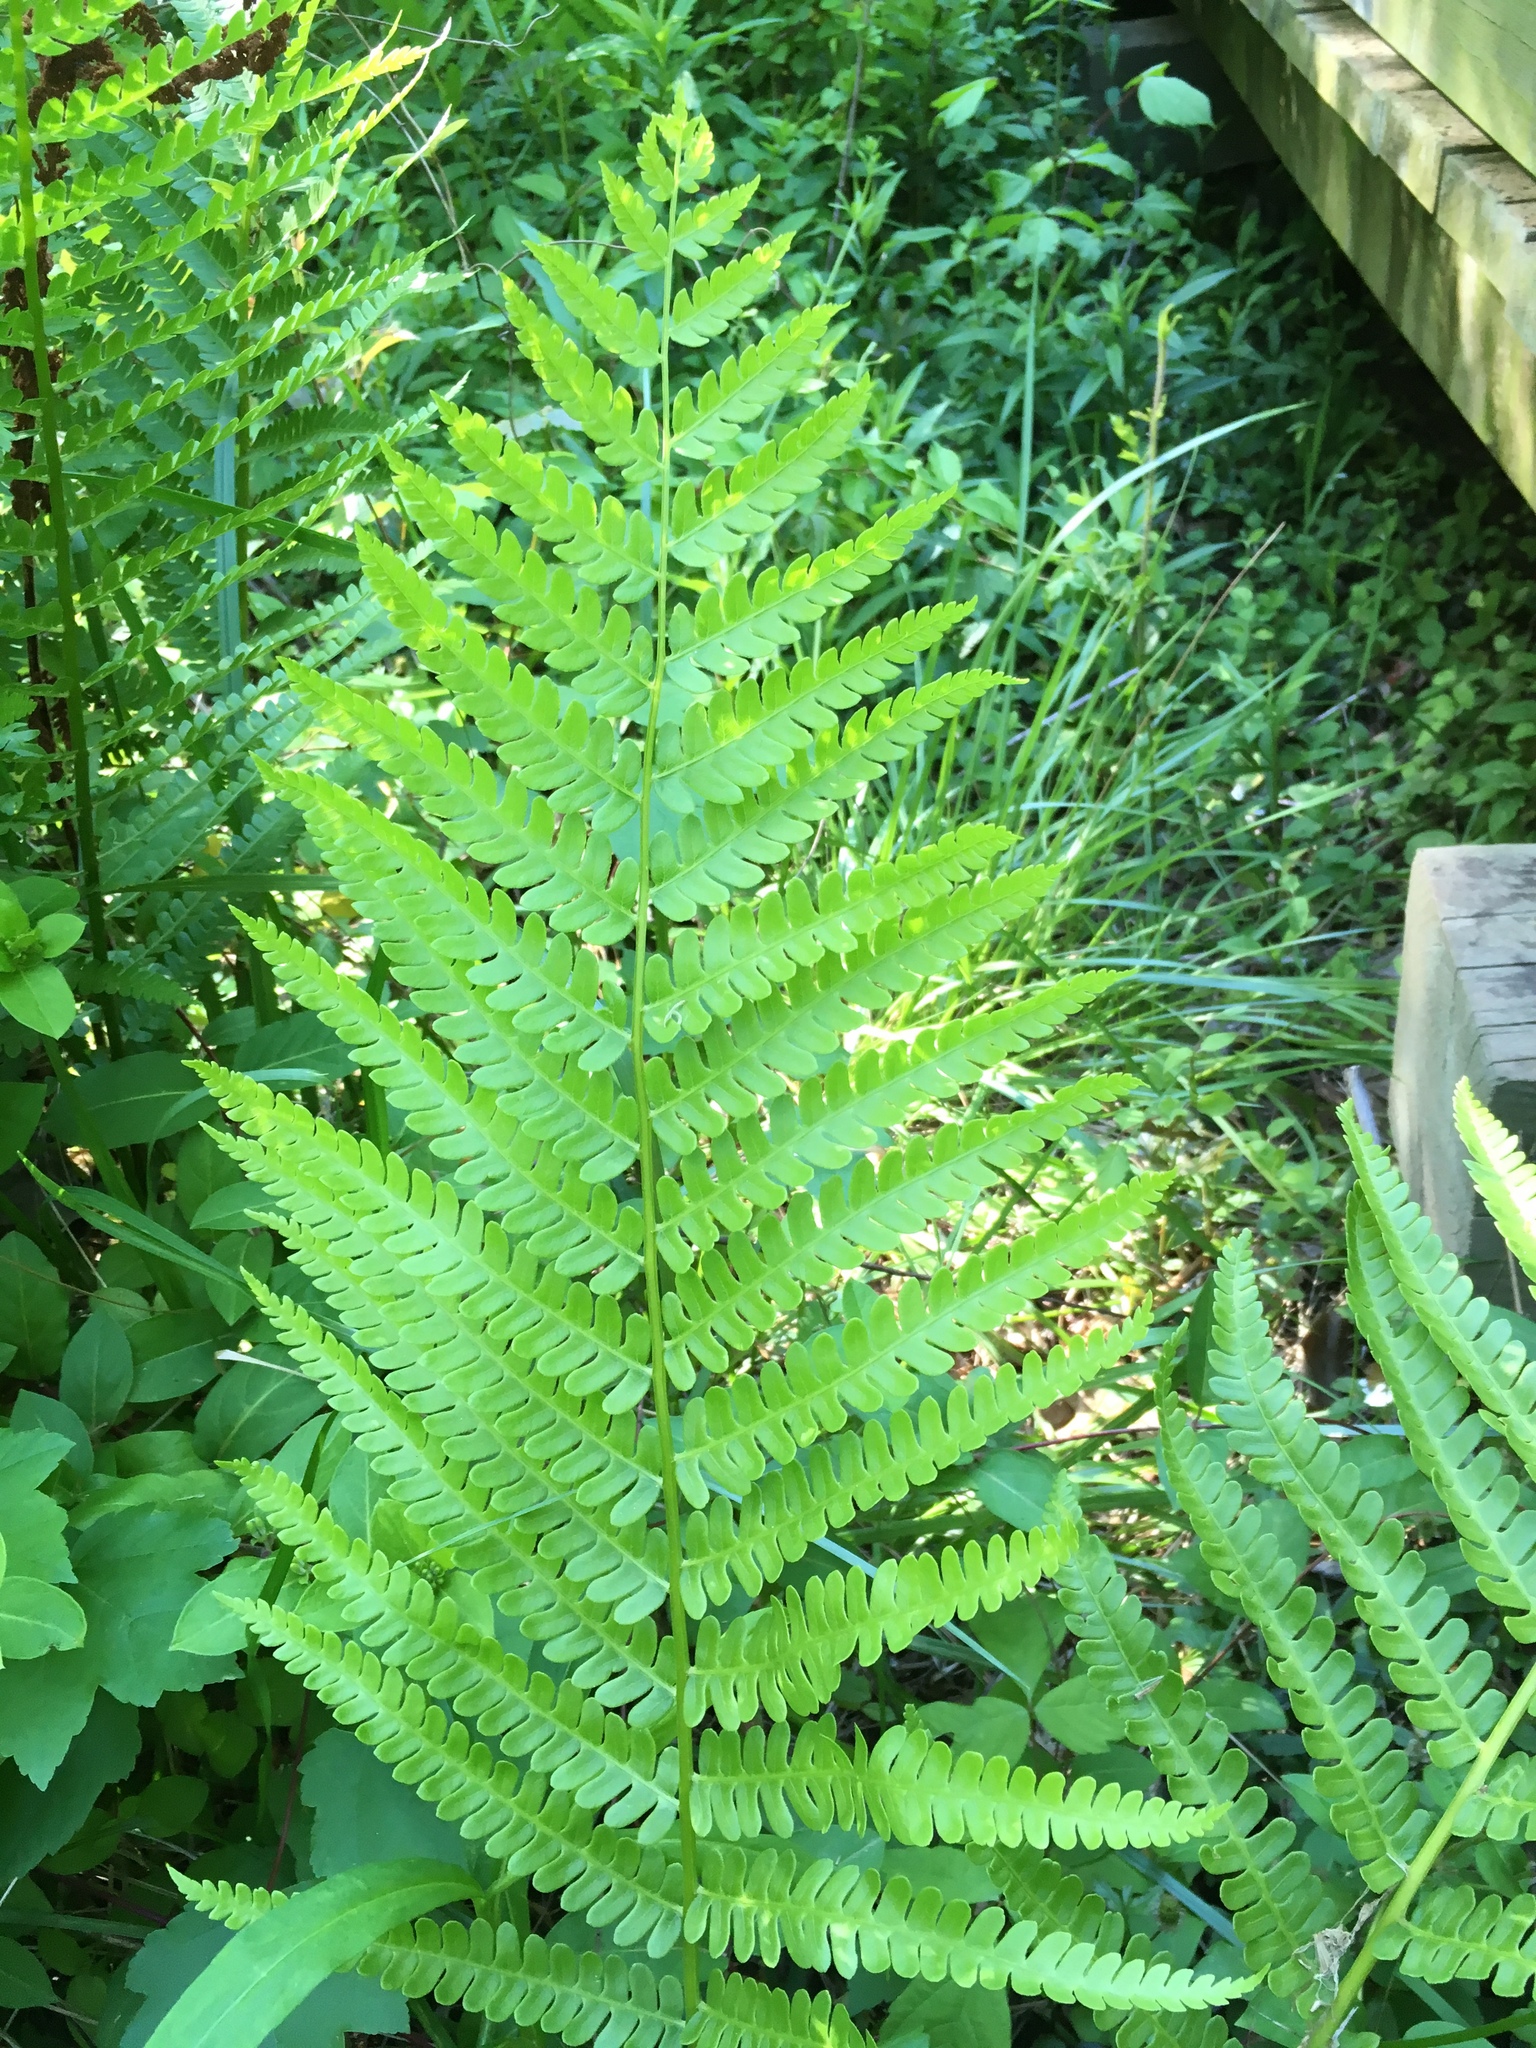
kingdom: Plantae
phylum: Tracheophyta
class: Polypodiopsida
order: Osmundales
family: Osmundaceae
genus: Osmundastrum
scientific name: Osmundastrum cinnamomeum
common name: Cinnamon fern
